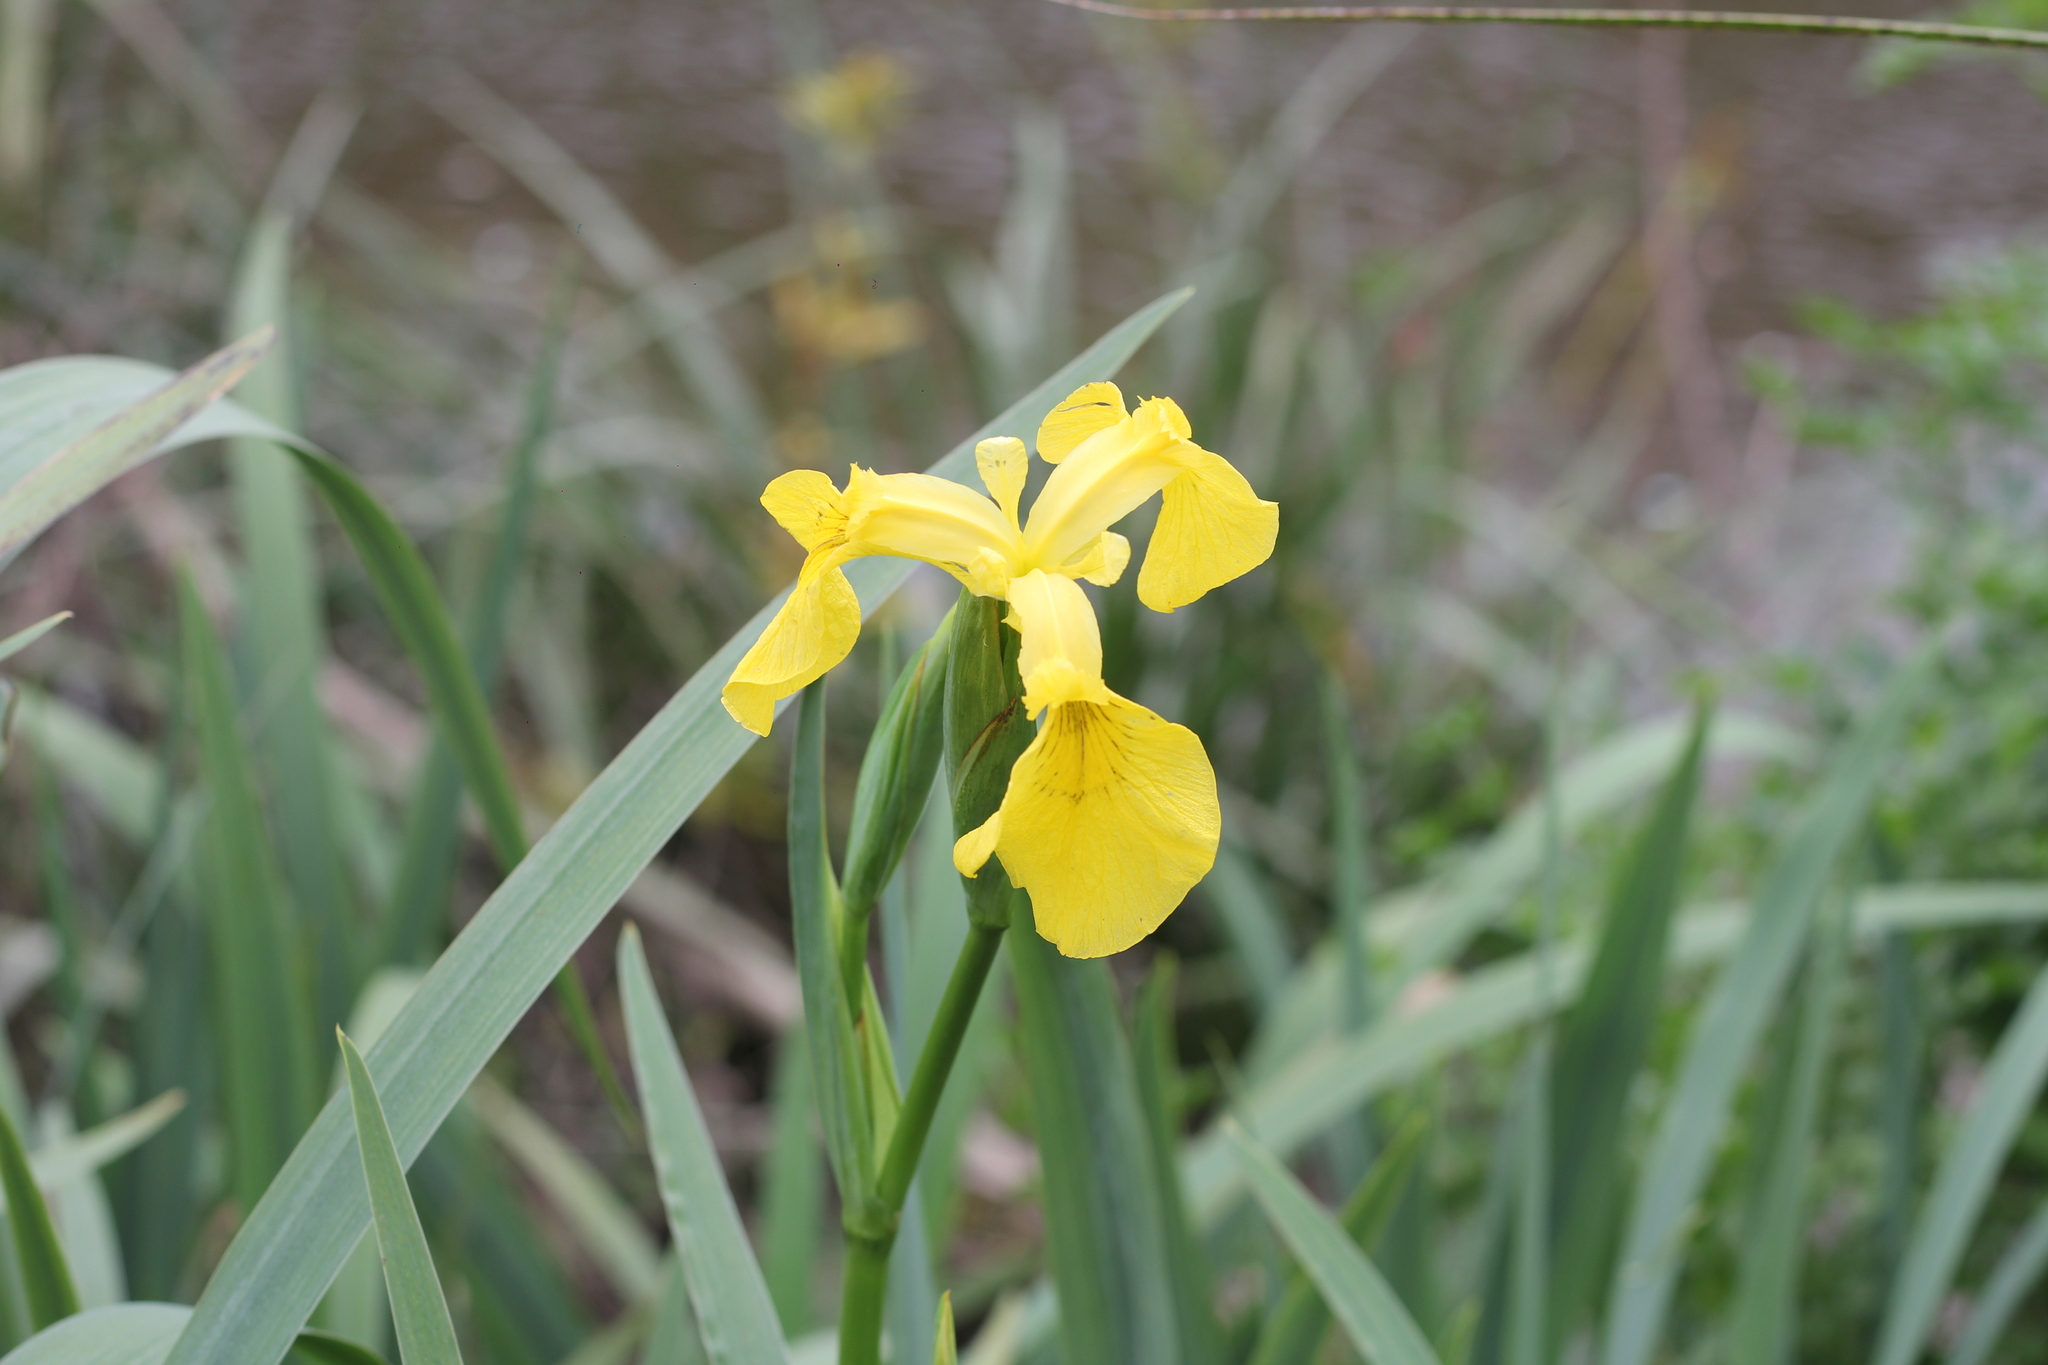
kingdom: Plantae
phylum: Tracheophyta
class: Liliopsida
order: Asparagales
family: Iridaceae
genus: Iris
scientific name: Iris pseudacorus
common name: Yellow flag
